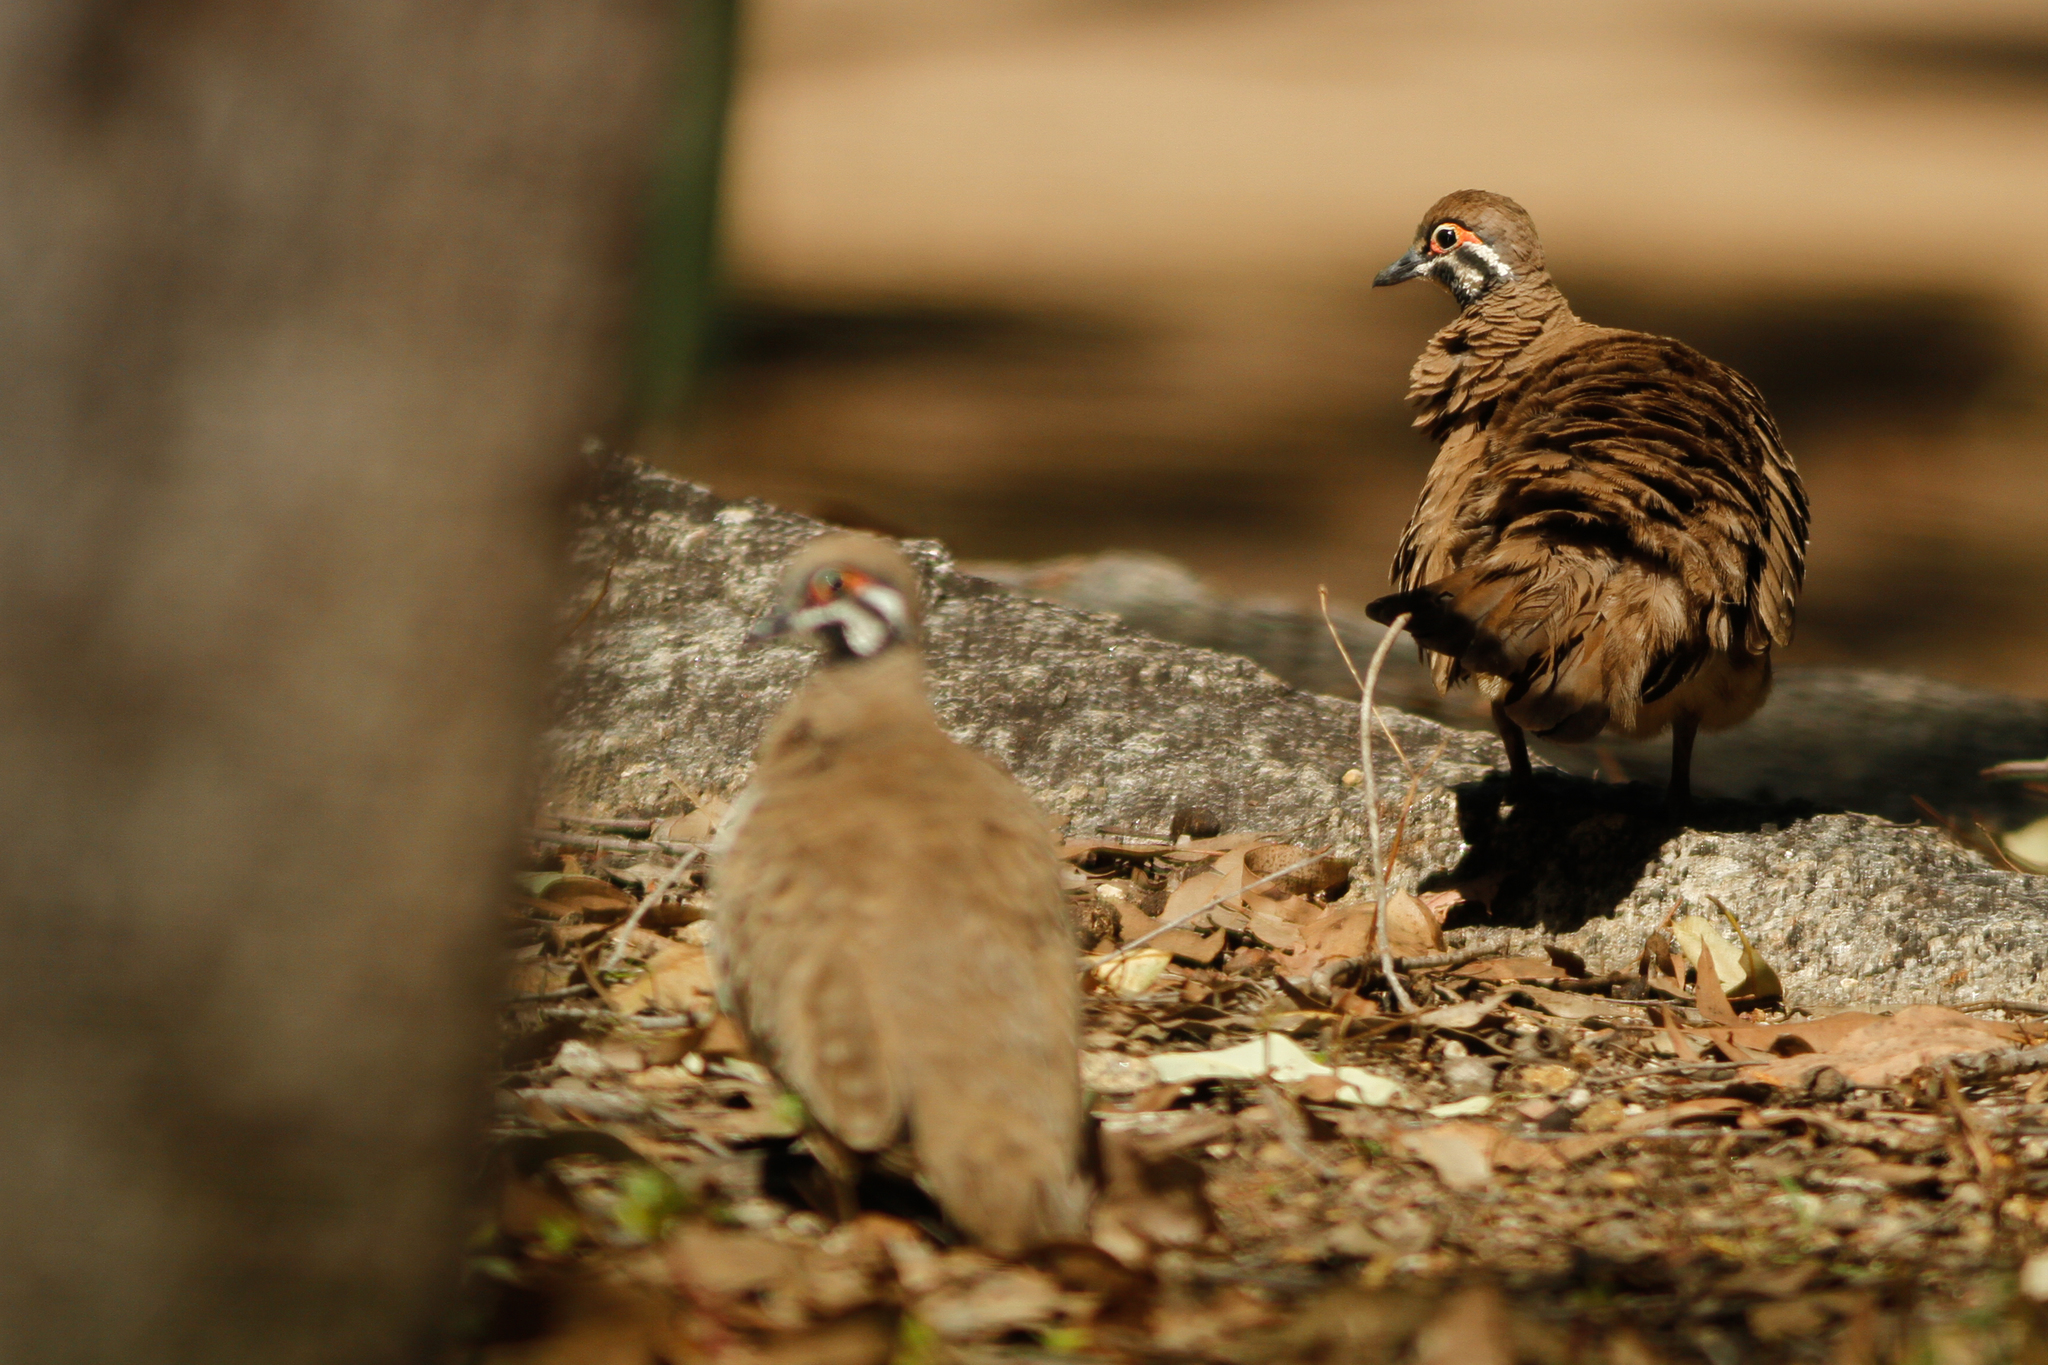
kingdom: Animalia
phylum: Chordata
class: Aves
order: Columbiformes
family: Columbidae
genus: Geophaps
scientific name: Geophaps scripta
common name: Squatter pigeon
